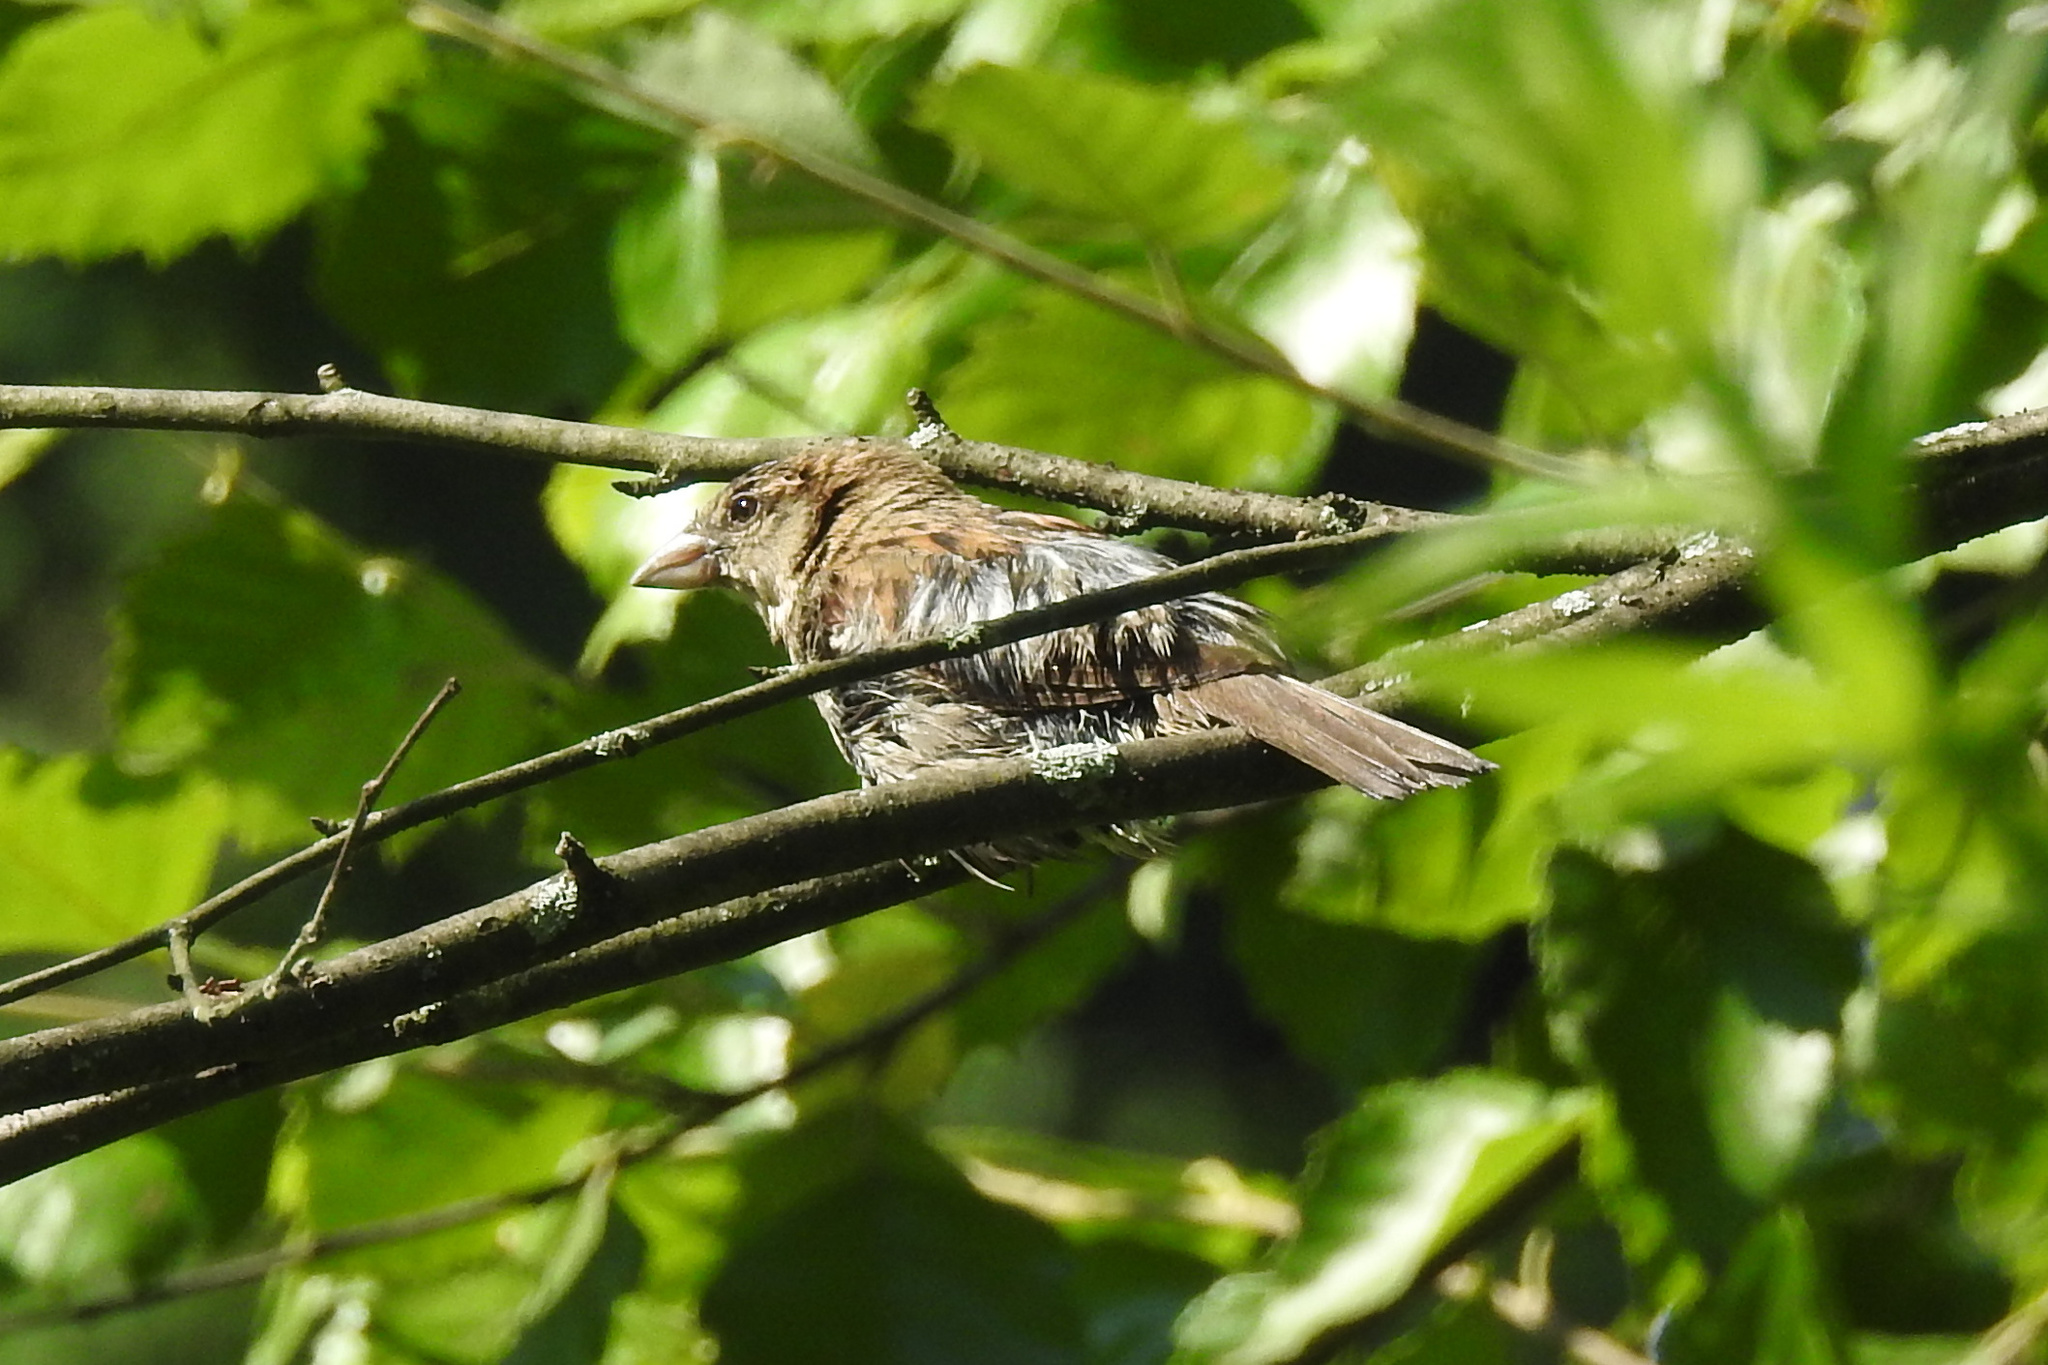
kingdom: Animalia
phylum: Chordata
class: Aves
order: Passeriformes
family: Passeridae
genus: Passer
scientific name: Passer domesticus
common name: House sparrow
